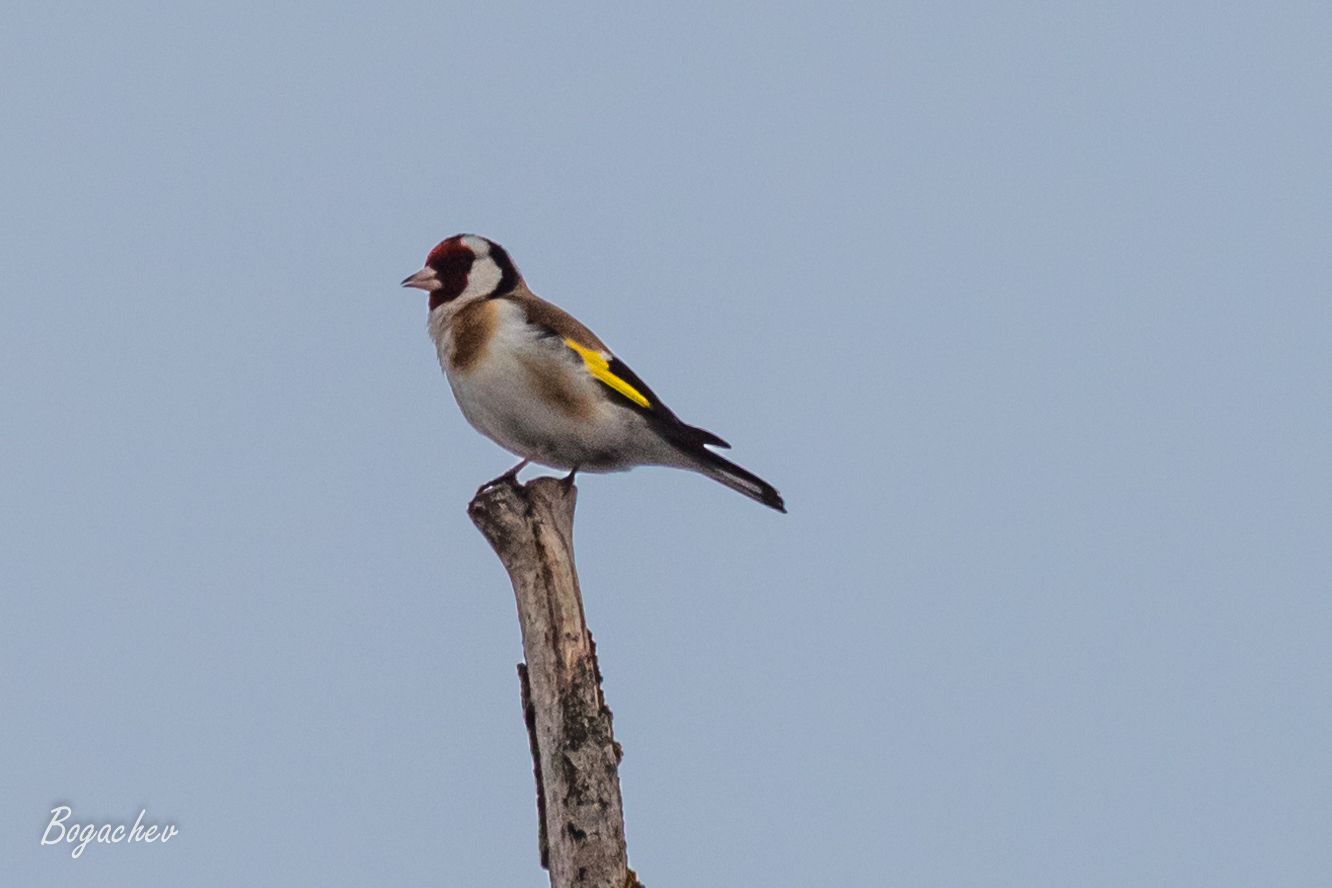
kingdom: Animalia
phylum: Chordata
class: Aves
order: Passeriformes
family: Fringillidae
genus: Carduelis
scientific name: Carduelis carduelis
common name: European goldfinch
